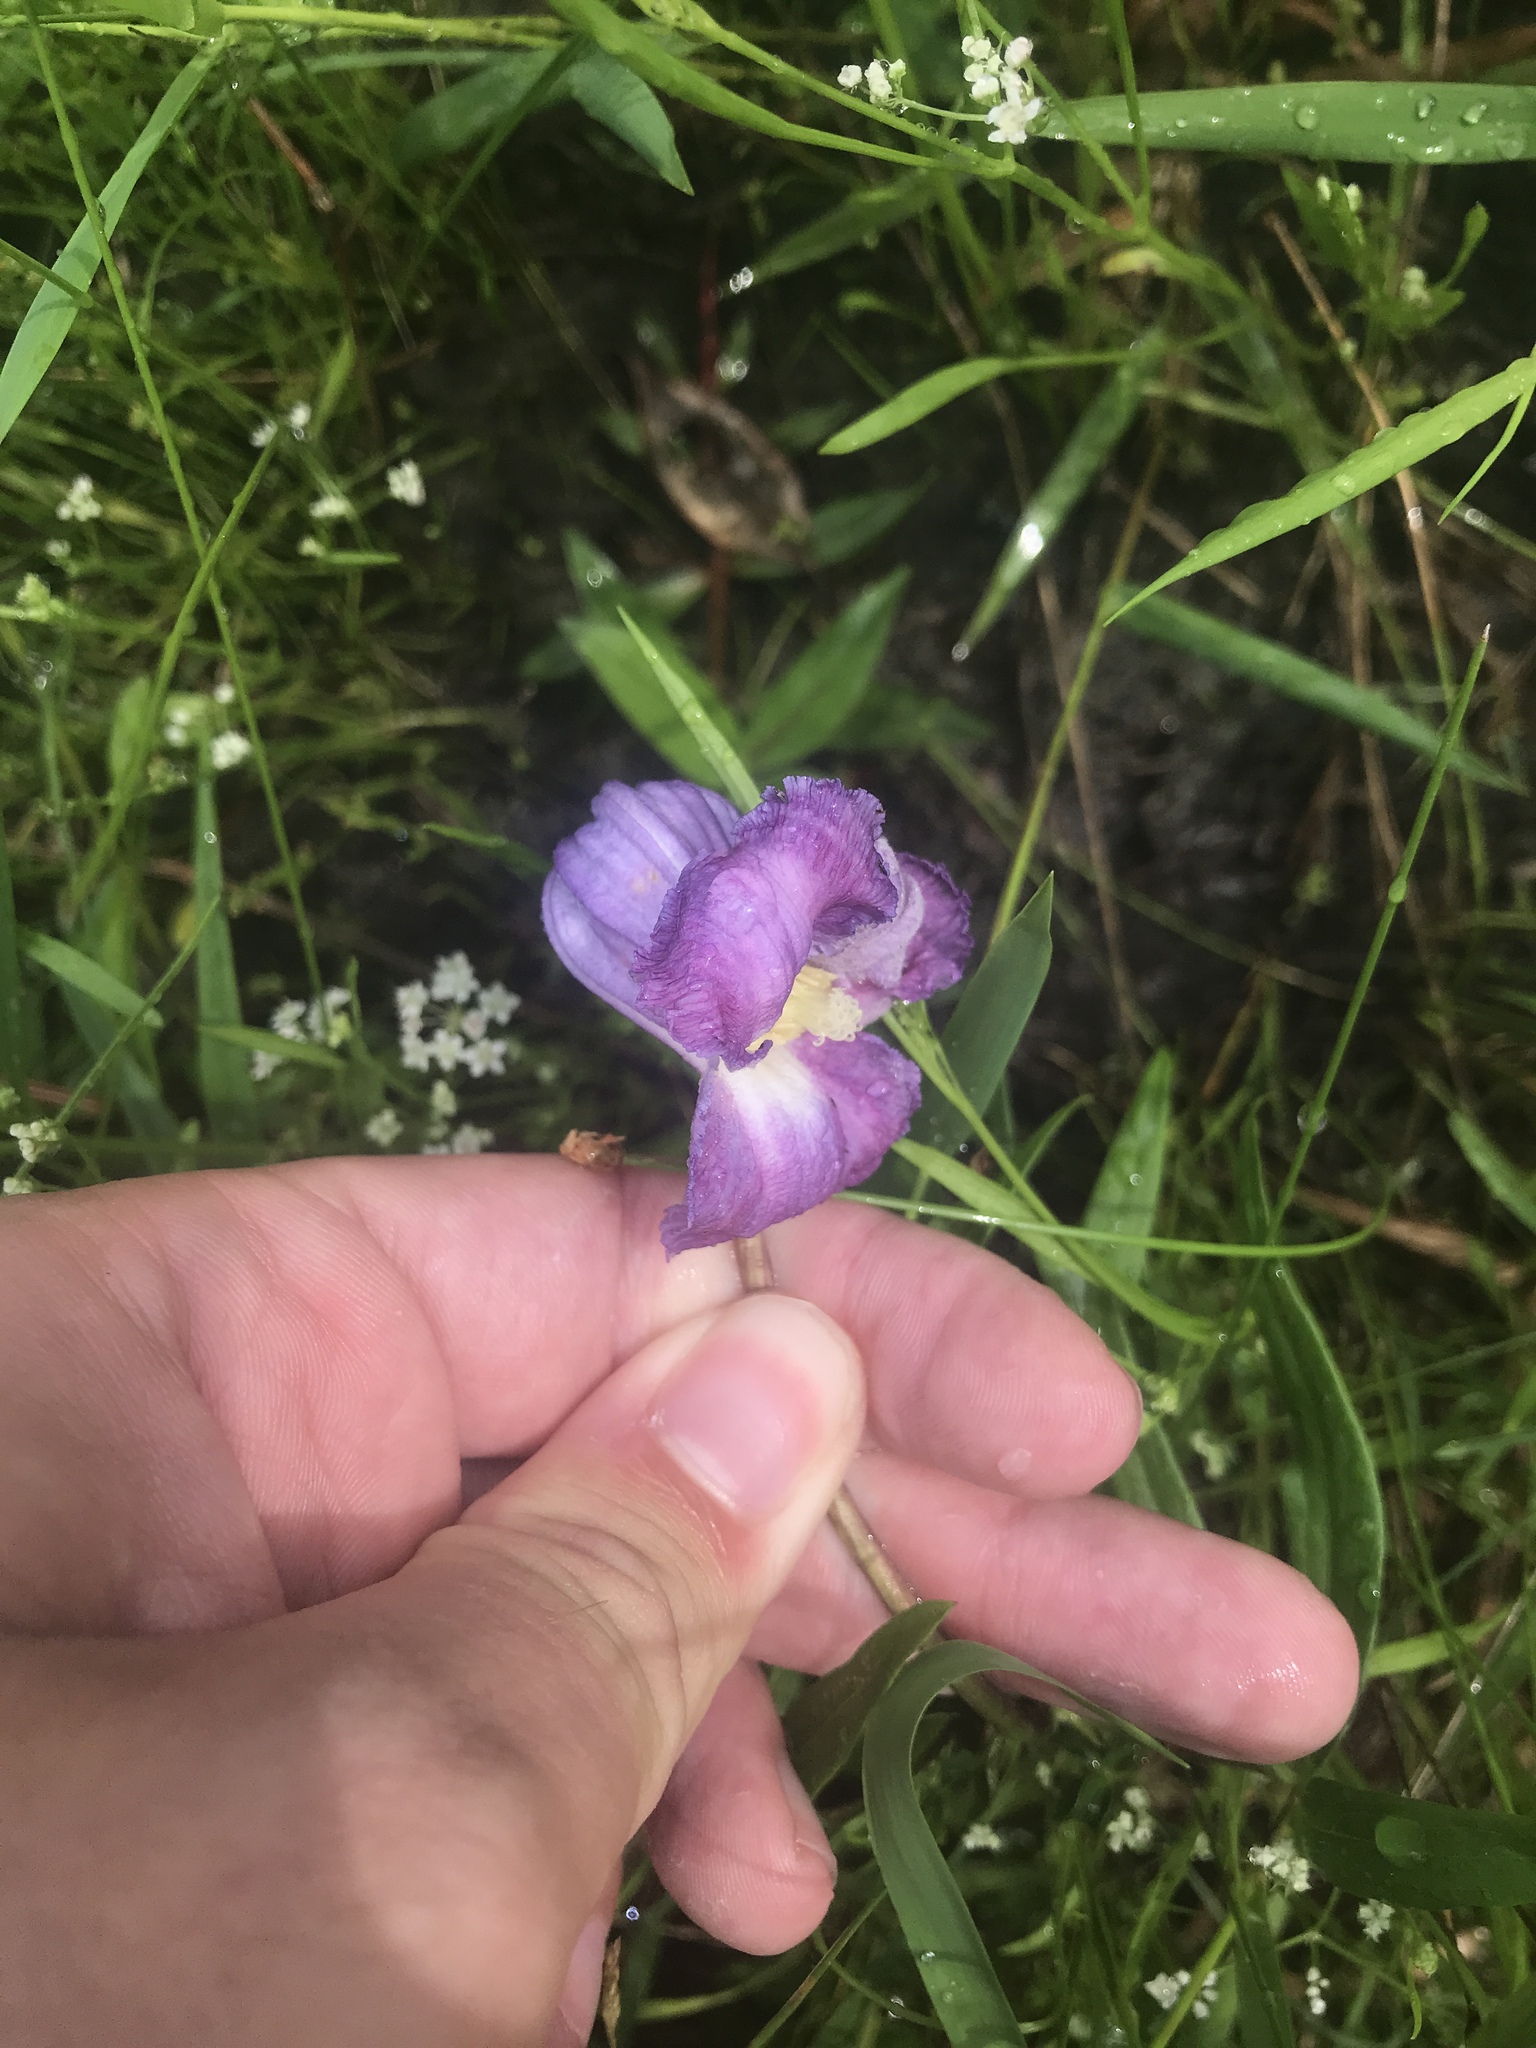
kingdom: Plantae
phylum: Tracheophyta
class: Magnoliopsida
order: Ranunculales
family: Ranunculaceae
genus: Clematis
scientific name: Clematis crispa
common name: Curly clematis
